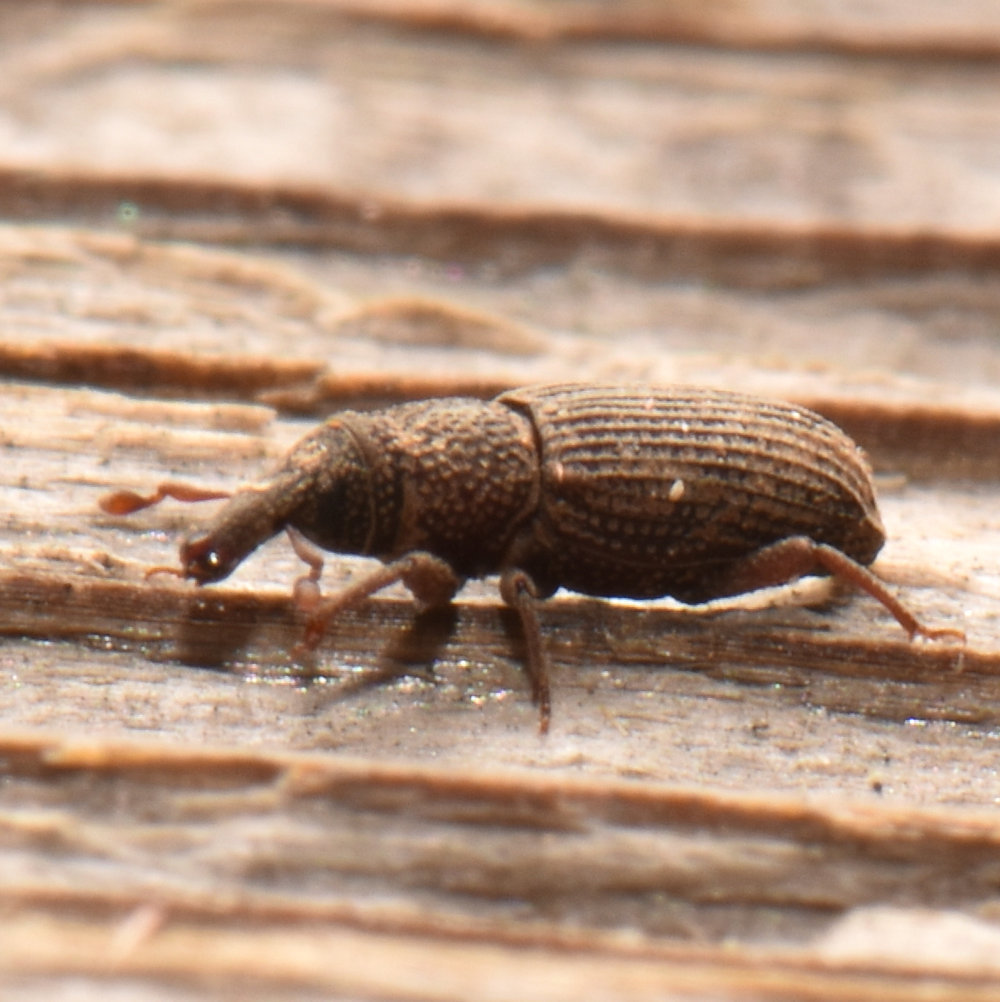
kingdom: Animalia
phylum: Arthropoda
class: Insecta
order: Coleoptera
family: Dryophthoridae
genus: Dryophthorus
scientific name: Dryophthorus americanus
